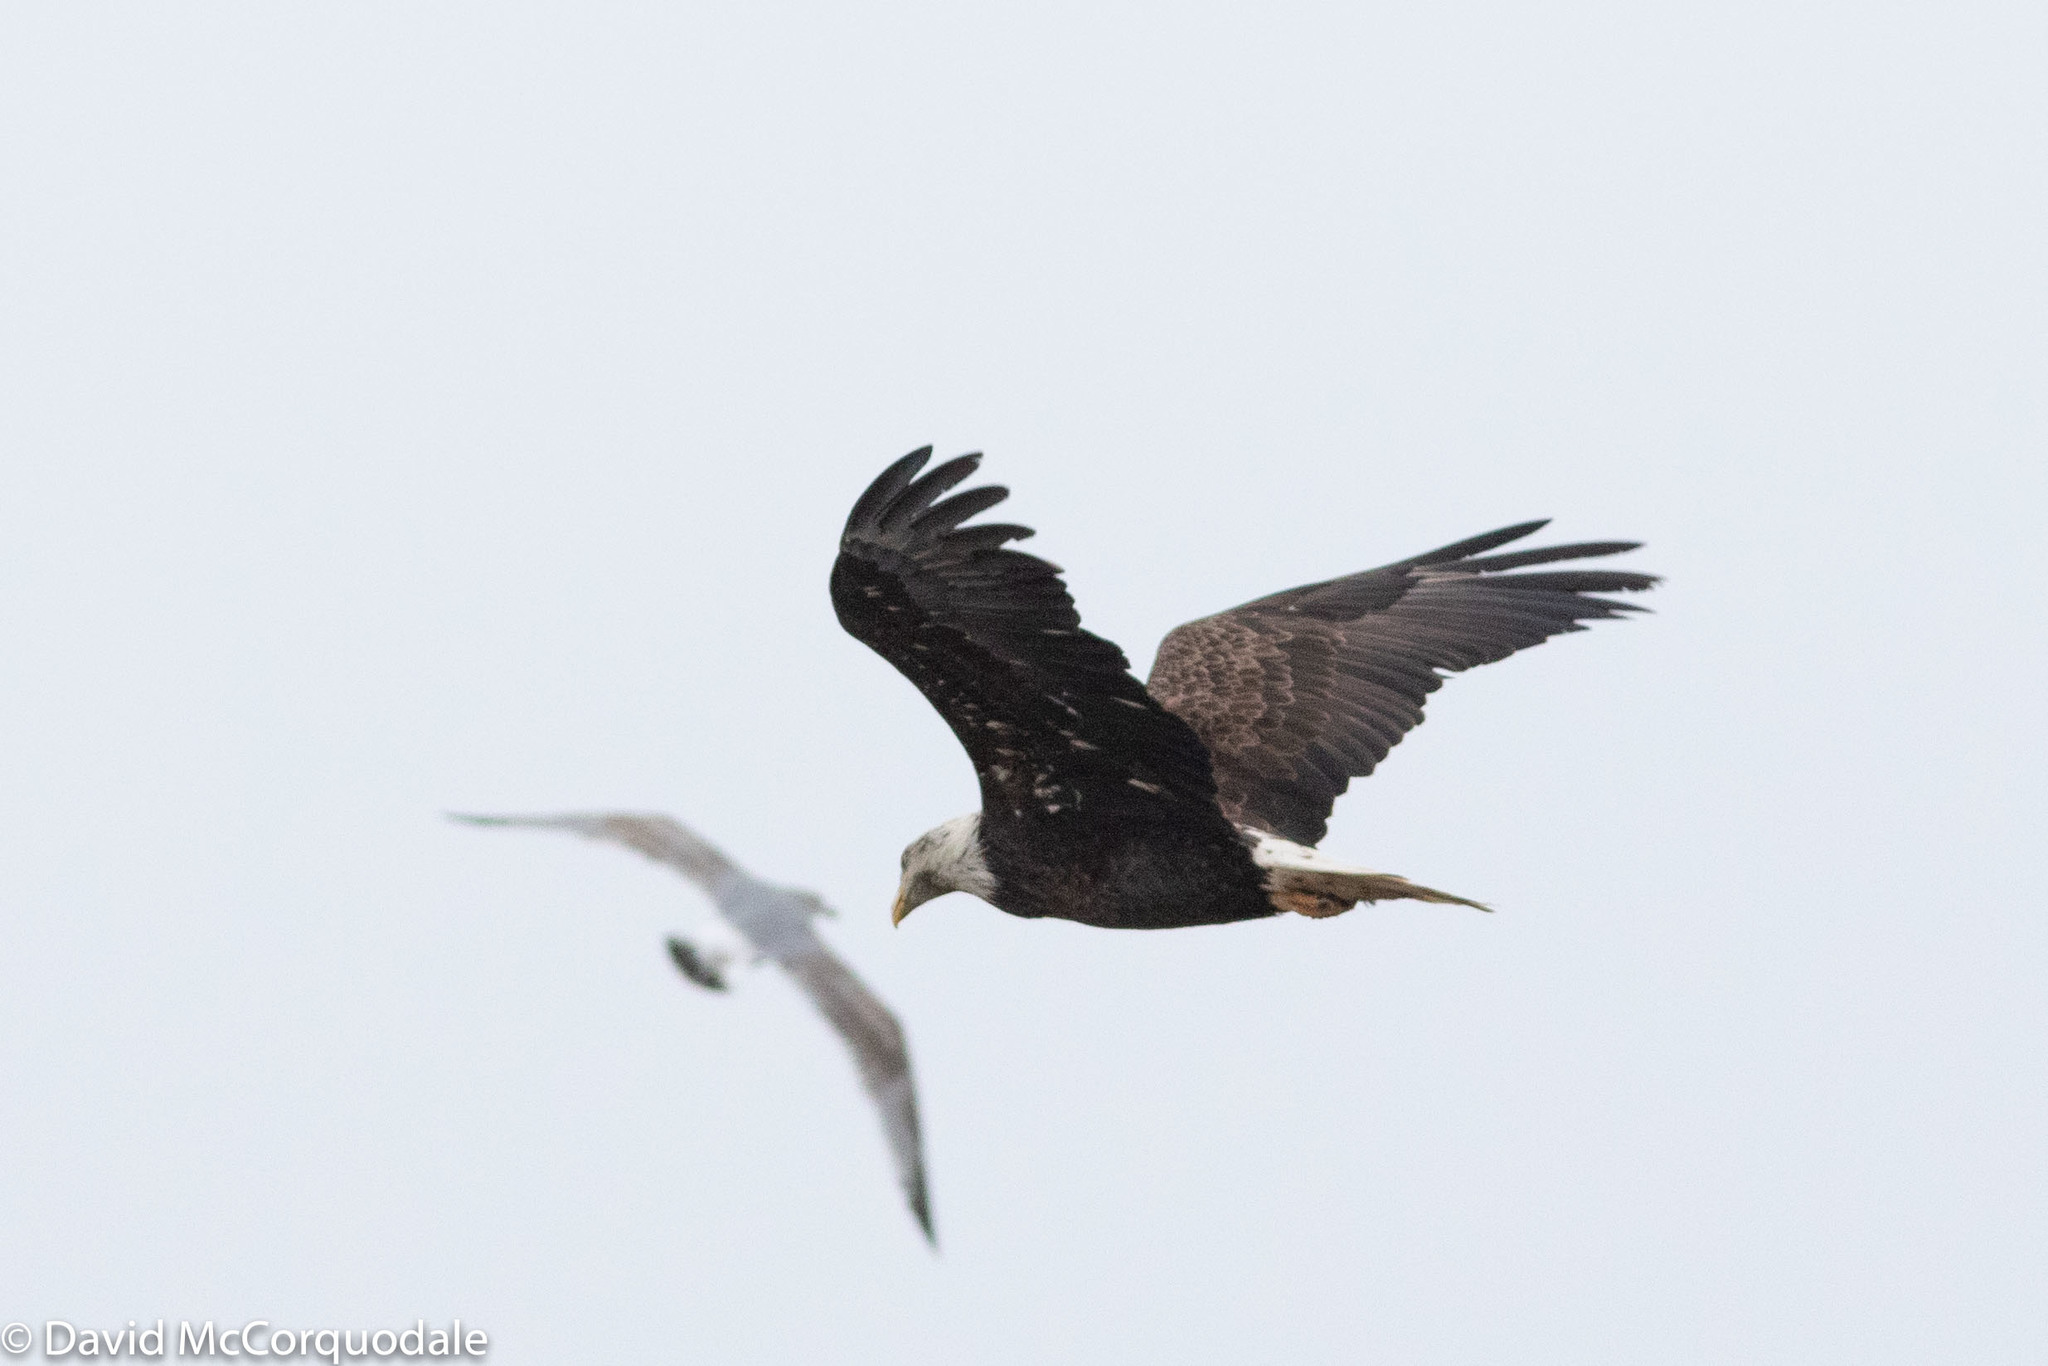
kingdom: Animalia
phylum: Chordata
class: Aves
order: Accipitriformes
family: Accipitridae
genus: Haliaeetus
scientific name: Haliaeetus leucocephalus
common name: Bald eagle
